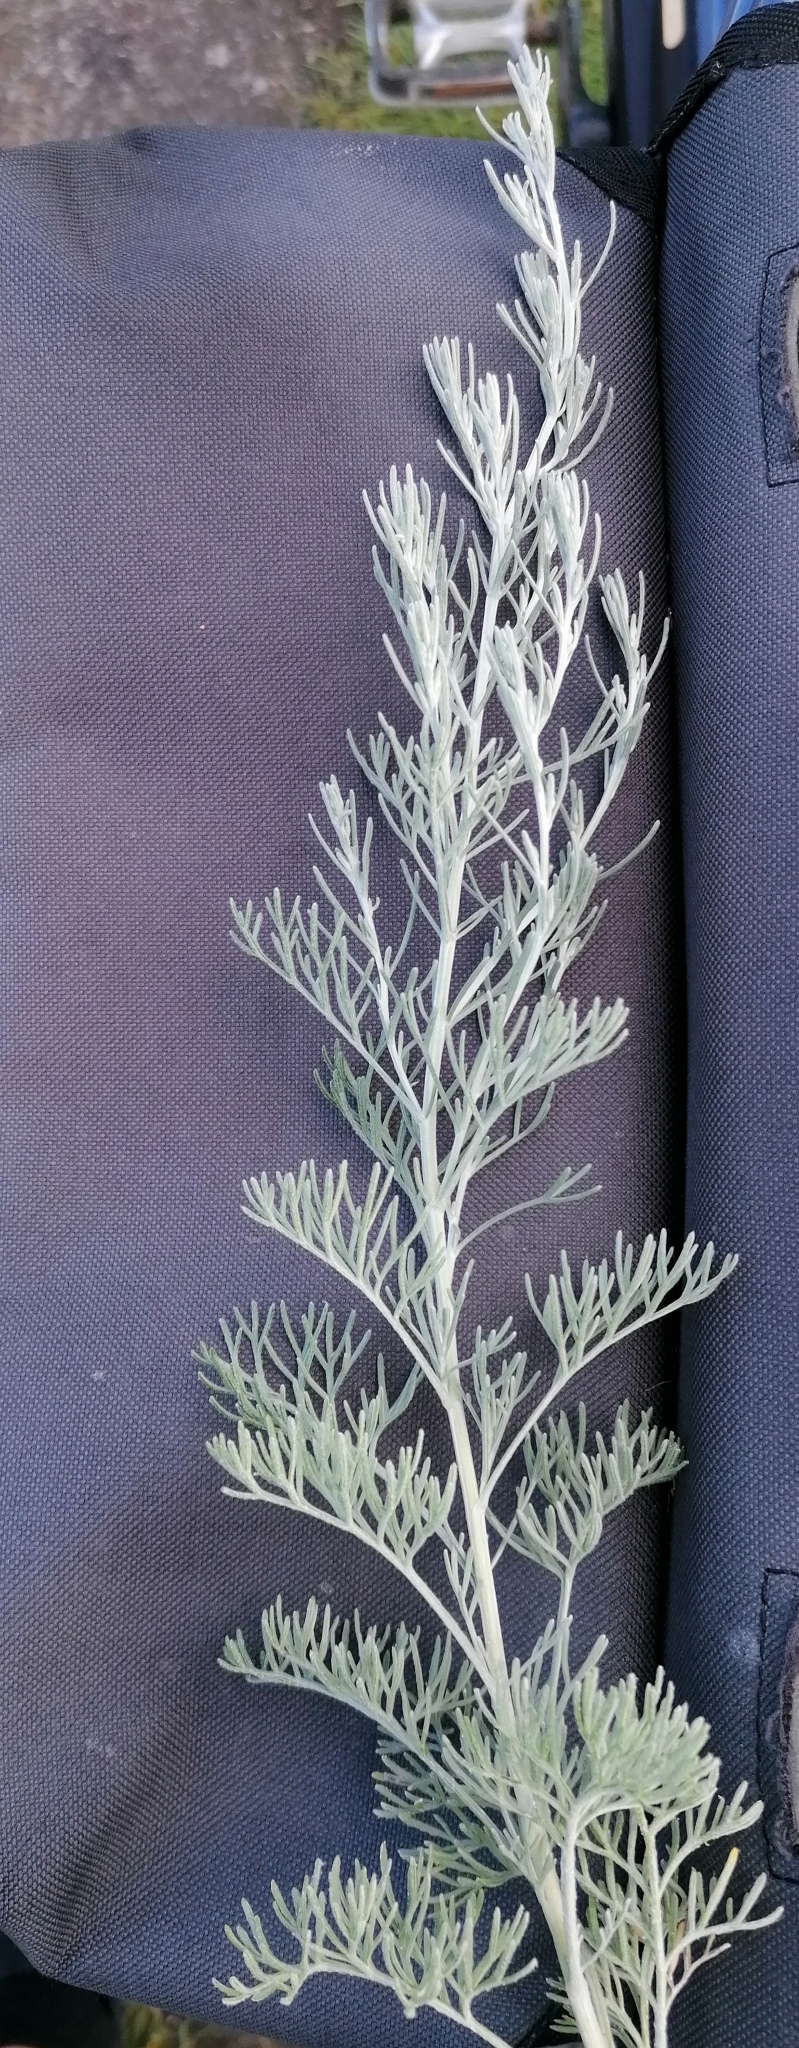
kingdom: Plantae
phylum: Tracheophyta
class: Magnoliopsida
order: Asterales
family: Asteraceae
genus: Artemisia
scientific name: Artemisia maritima
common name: Wormseed
